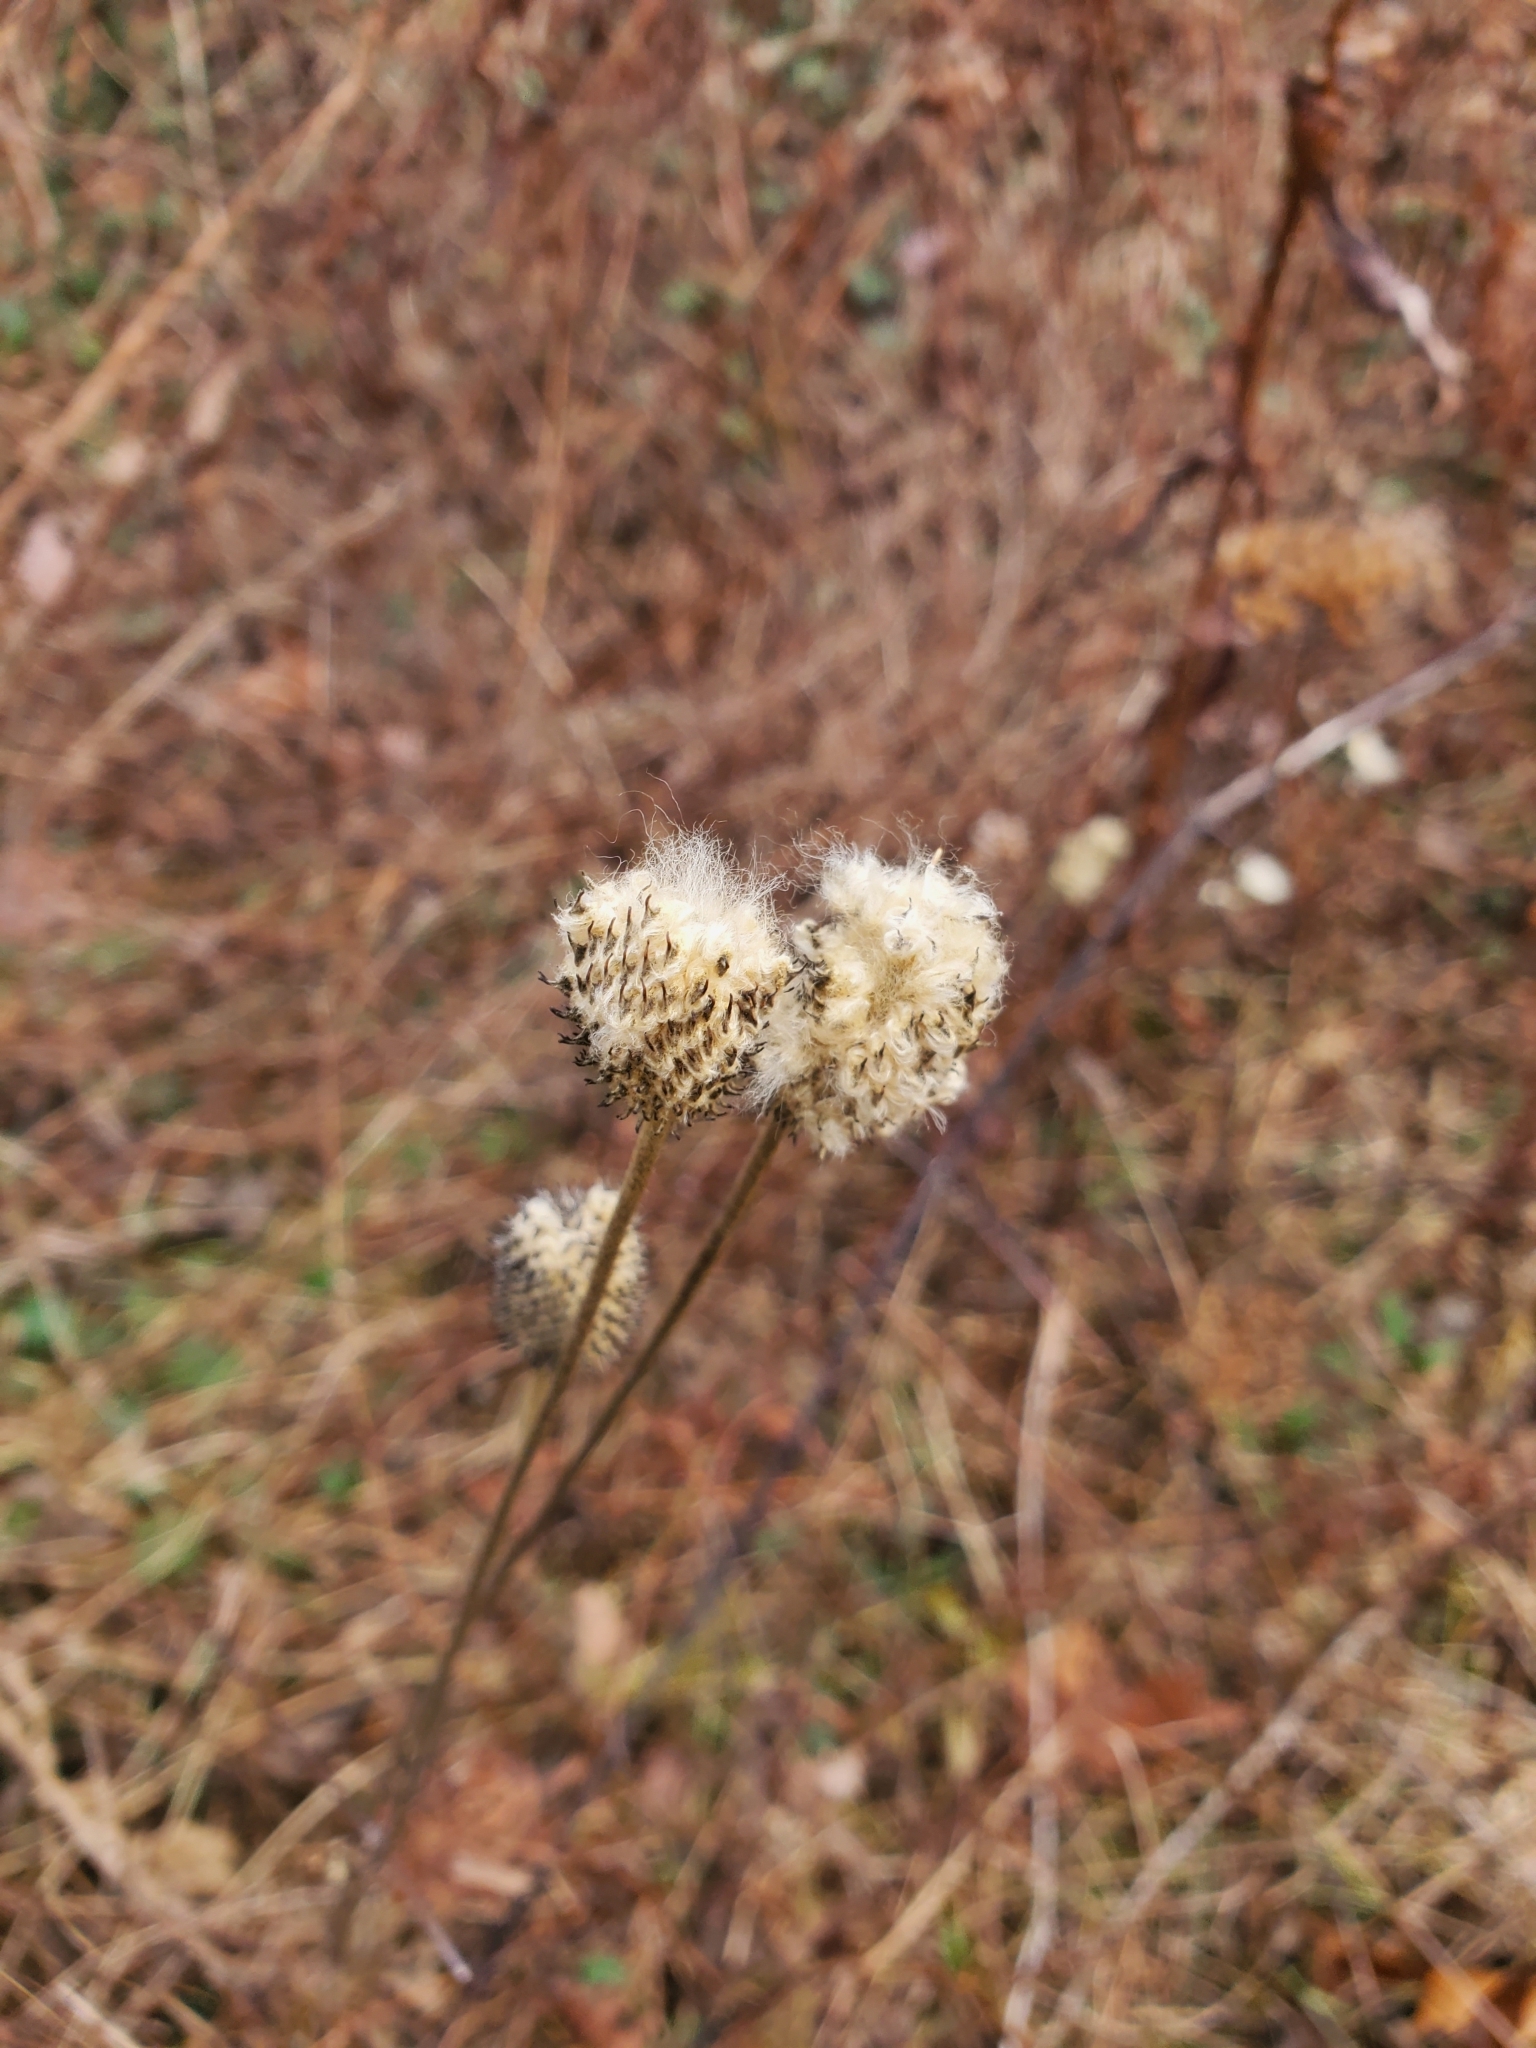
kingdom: Plantae
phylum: Tracheophyta
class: Magnoliopsida
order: Ranunculales
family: Ranunculaceae
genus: Anemone
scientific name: Anemone virginiana
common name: Tall anemone
